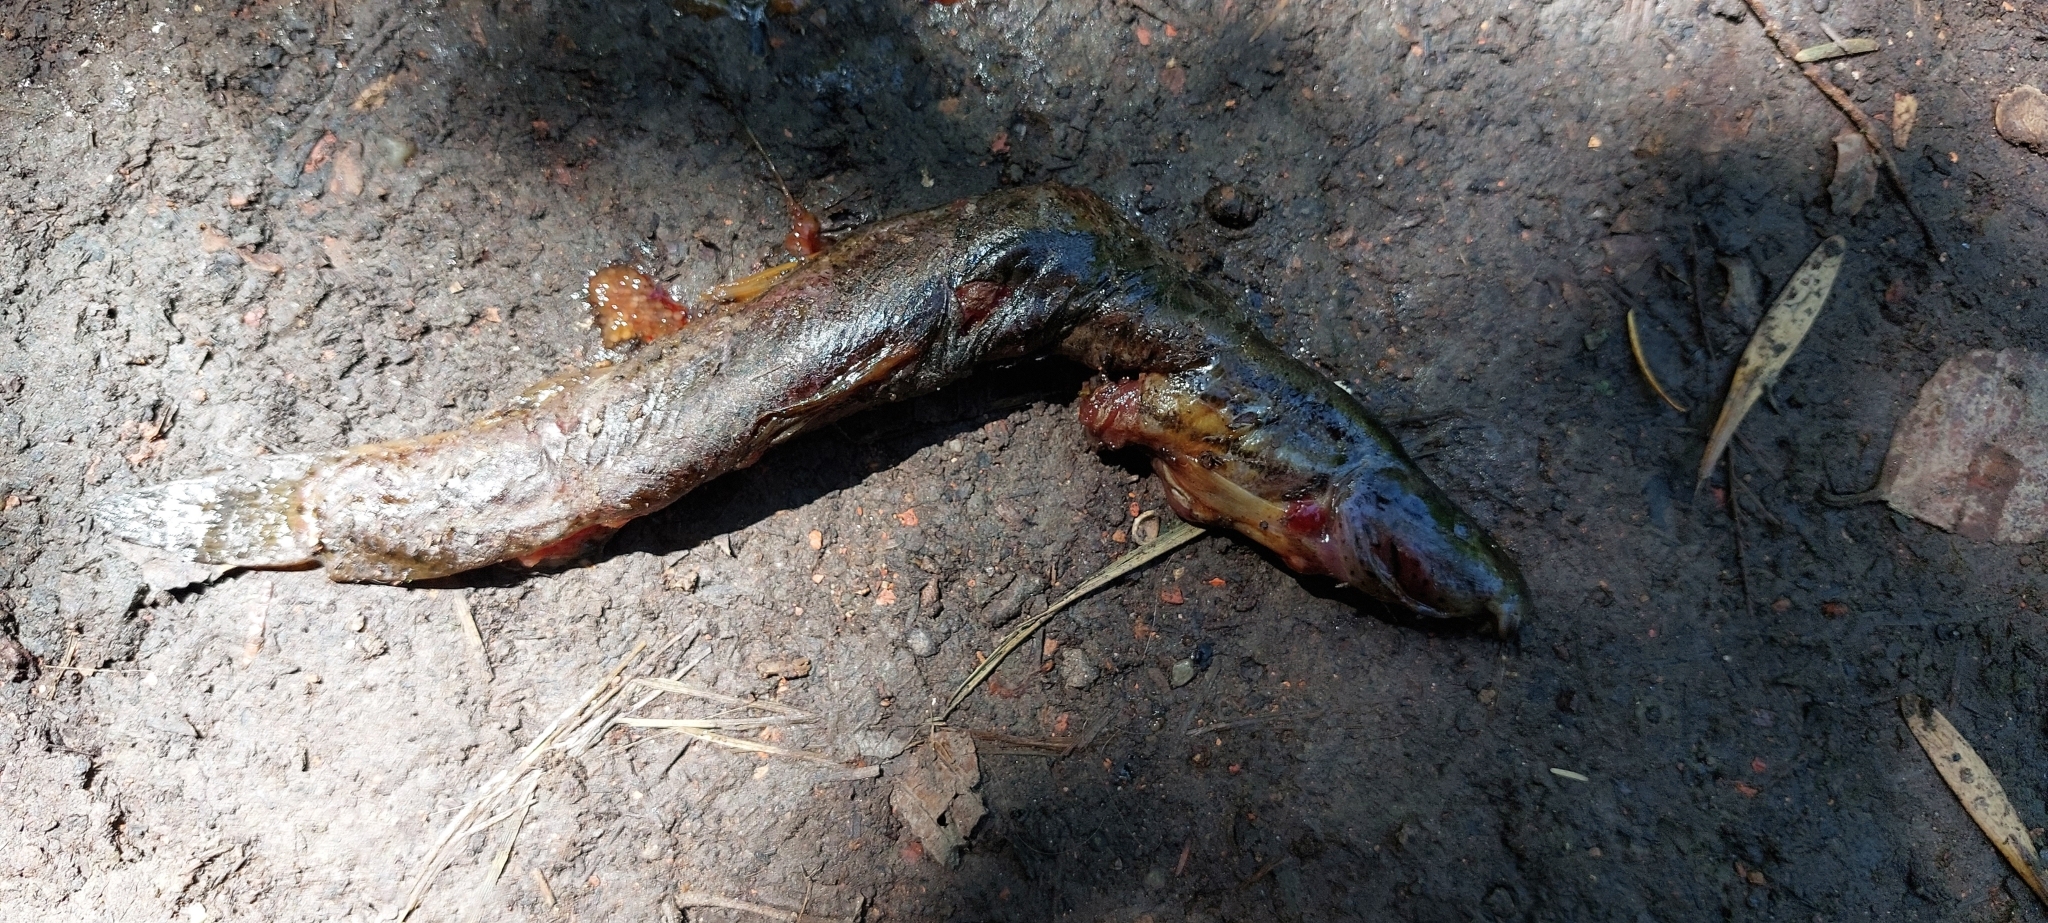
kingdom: Animalia
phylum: Chordata
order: Cypriniformes
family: Cobitidae
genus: Misgurnus
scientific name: Misgurnus fossilis
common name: Weatherfish
